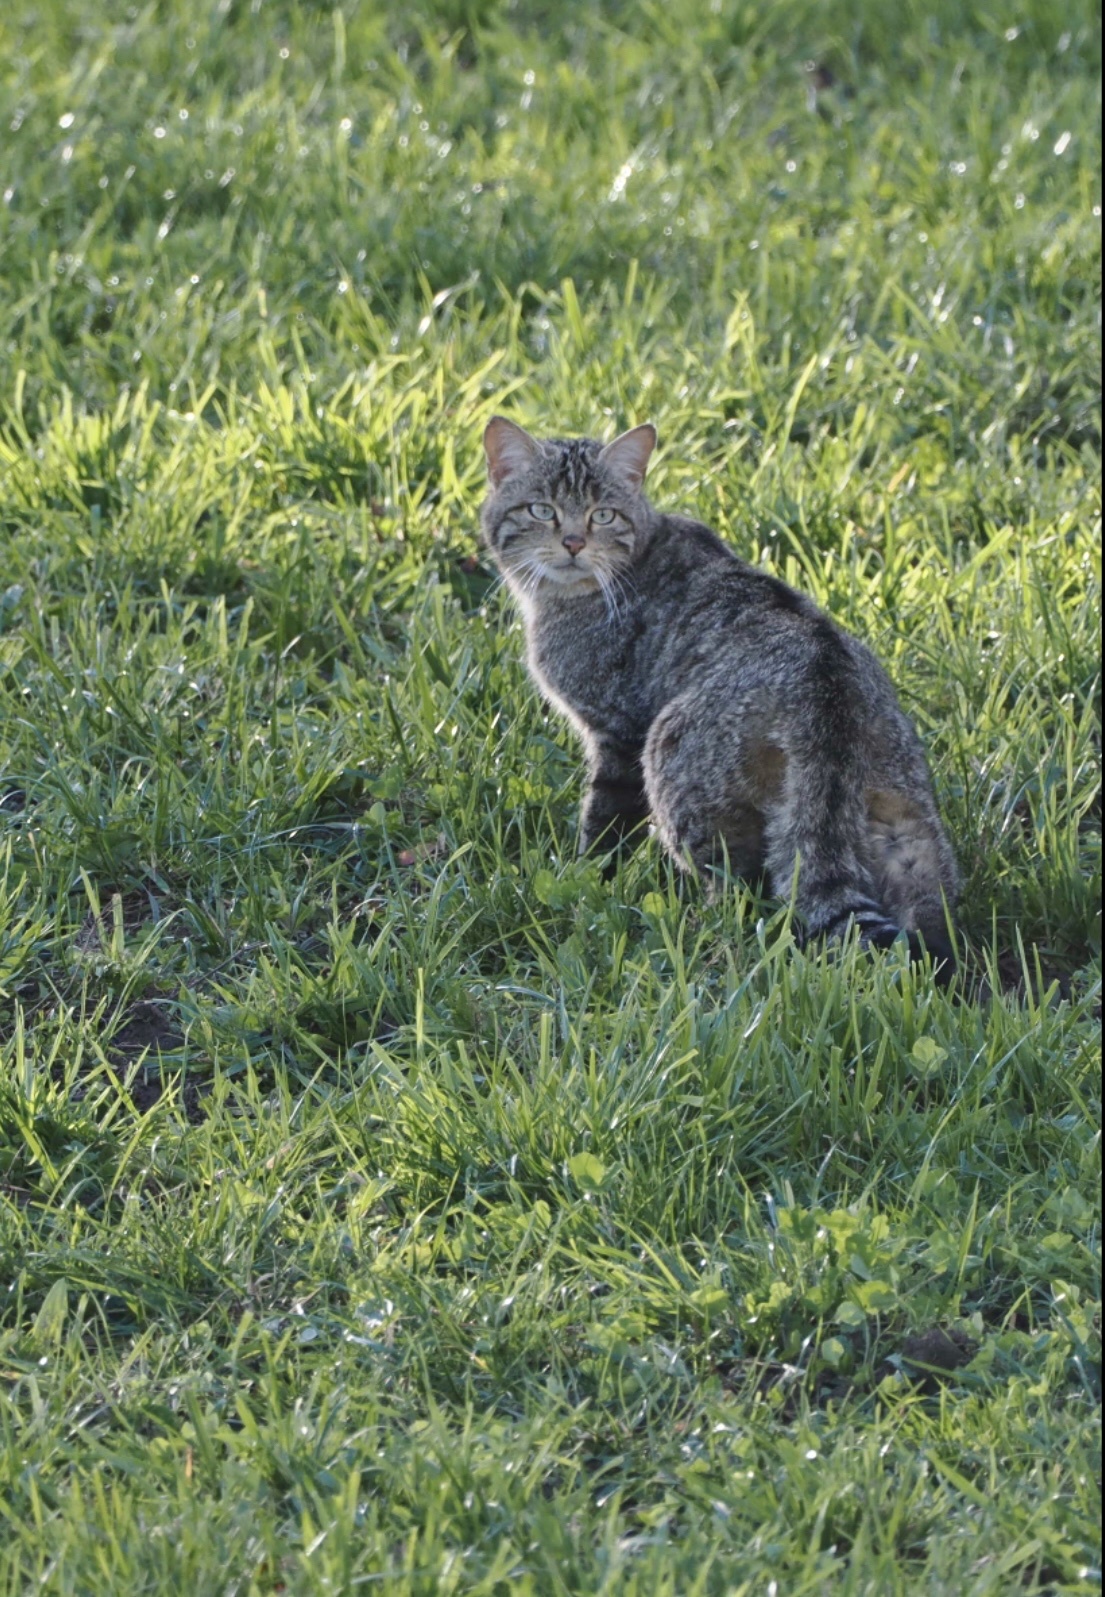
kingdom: Animalia
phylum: Chordata
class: Mammalia
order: Carnivora
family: Felidae
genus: Felis
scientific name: Felis silvestris
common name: Wildcat
